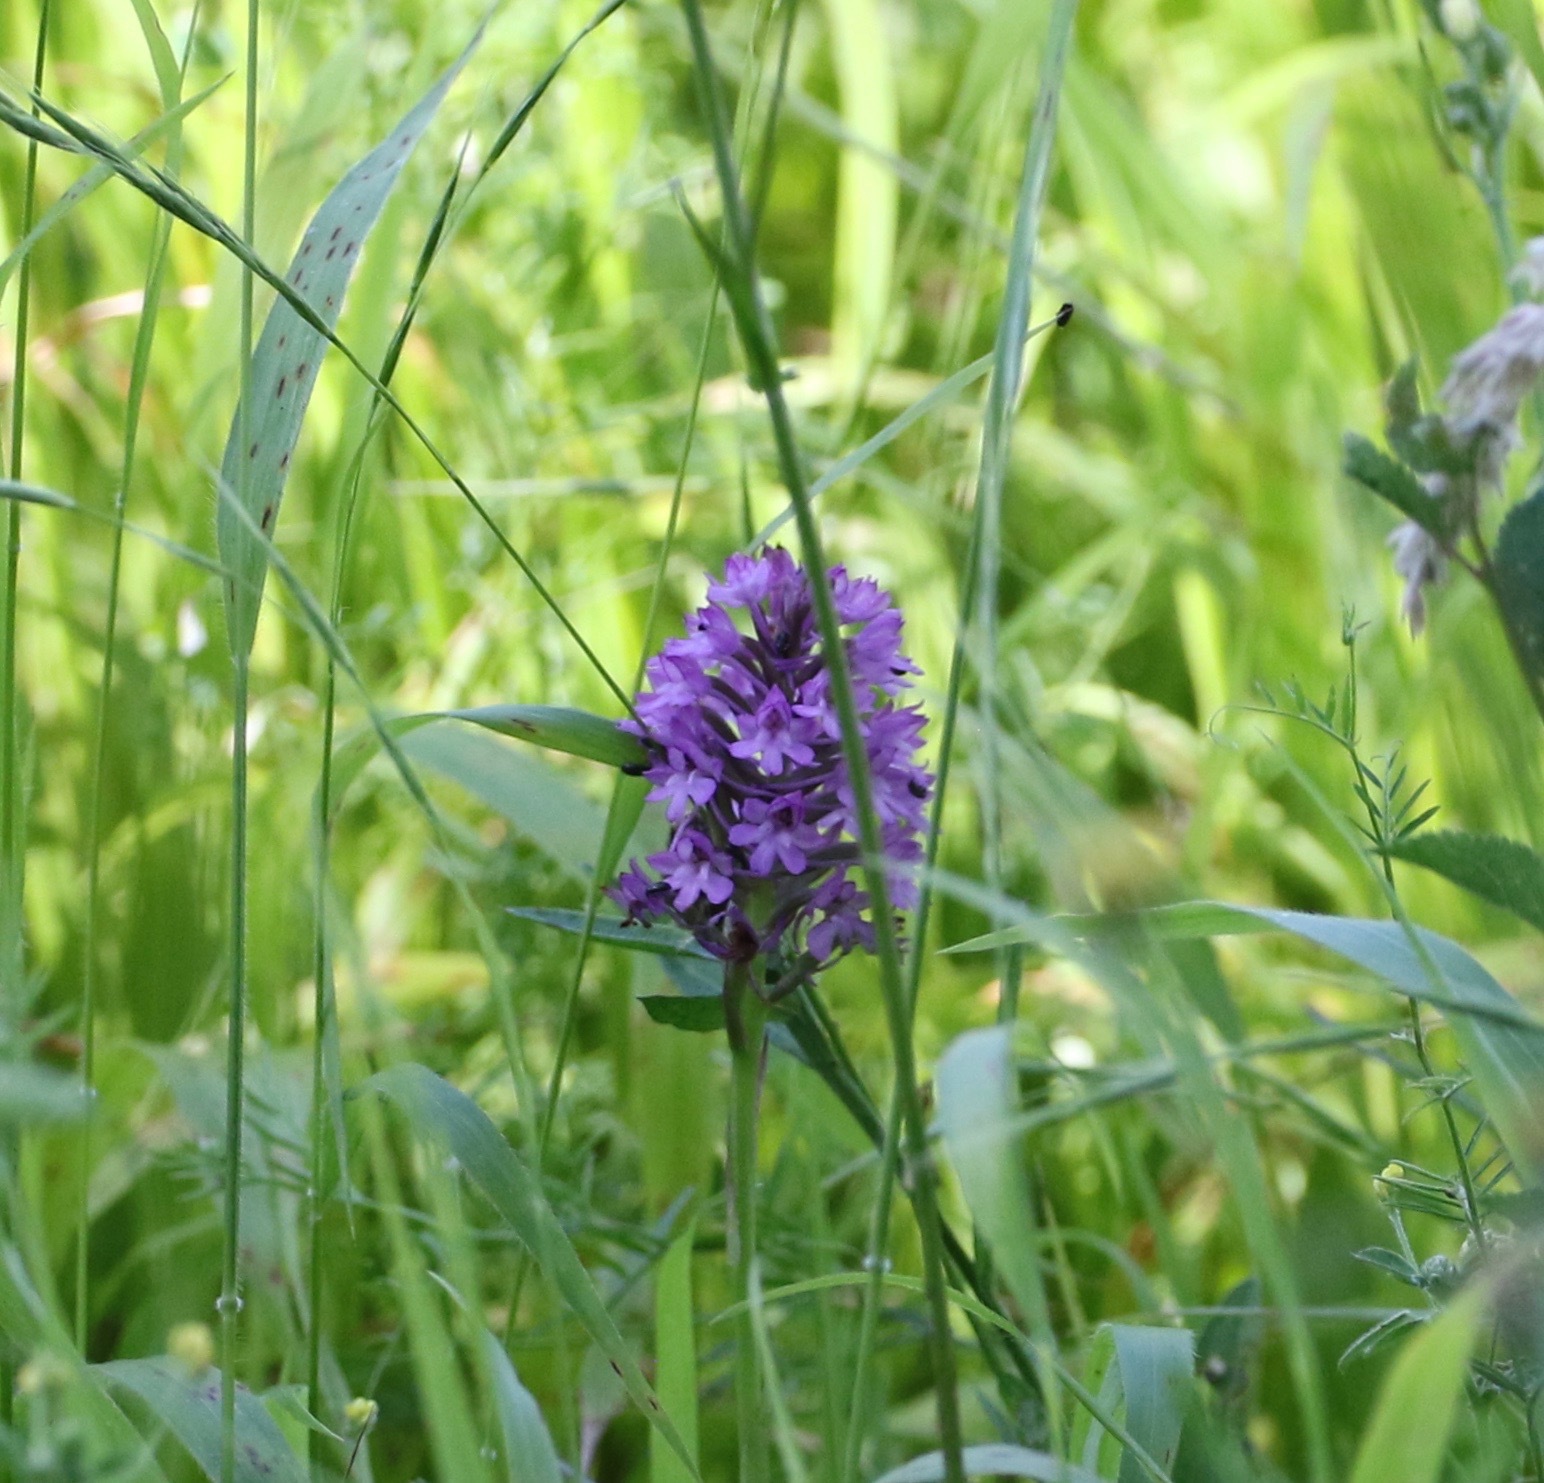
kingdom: Plantae
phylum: Tracheophyta
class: Liliopsida
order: Asparagales
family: Orchidaceae
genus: Anacamptis
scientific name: Anacamptis pyramidalis
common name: Pyramidal orchid
